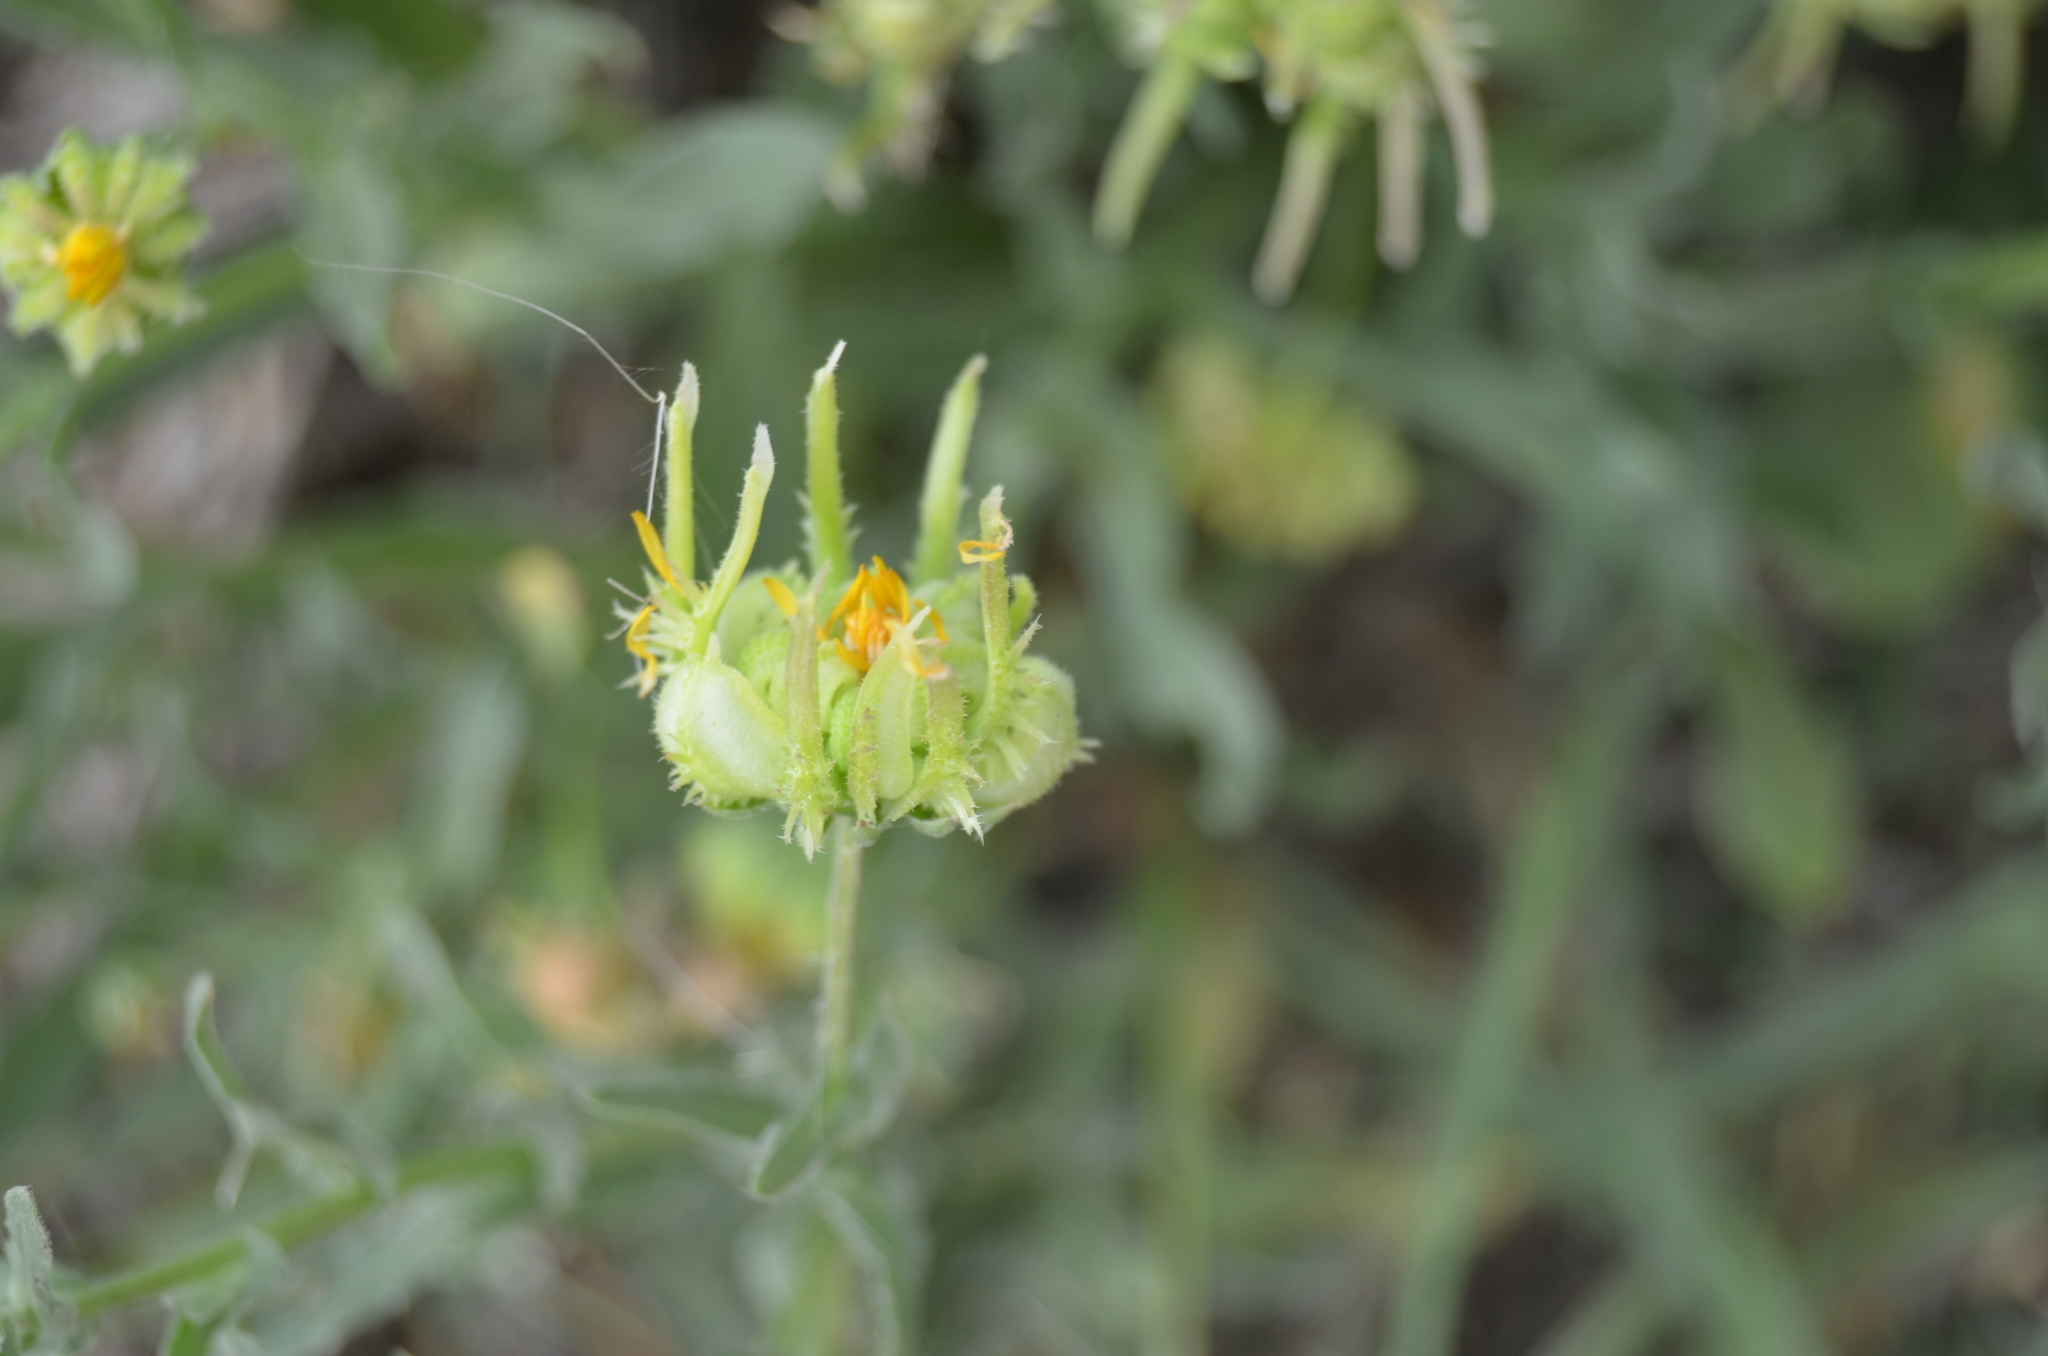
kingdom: Plantae
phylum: Tracheophyta
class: Magnoliopsida
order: Asterales
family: Asteraceae
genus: Calendula
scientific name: Calendula arvensis
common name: Field marigold
